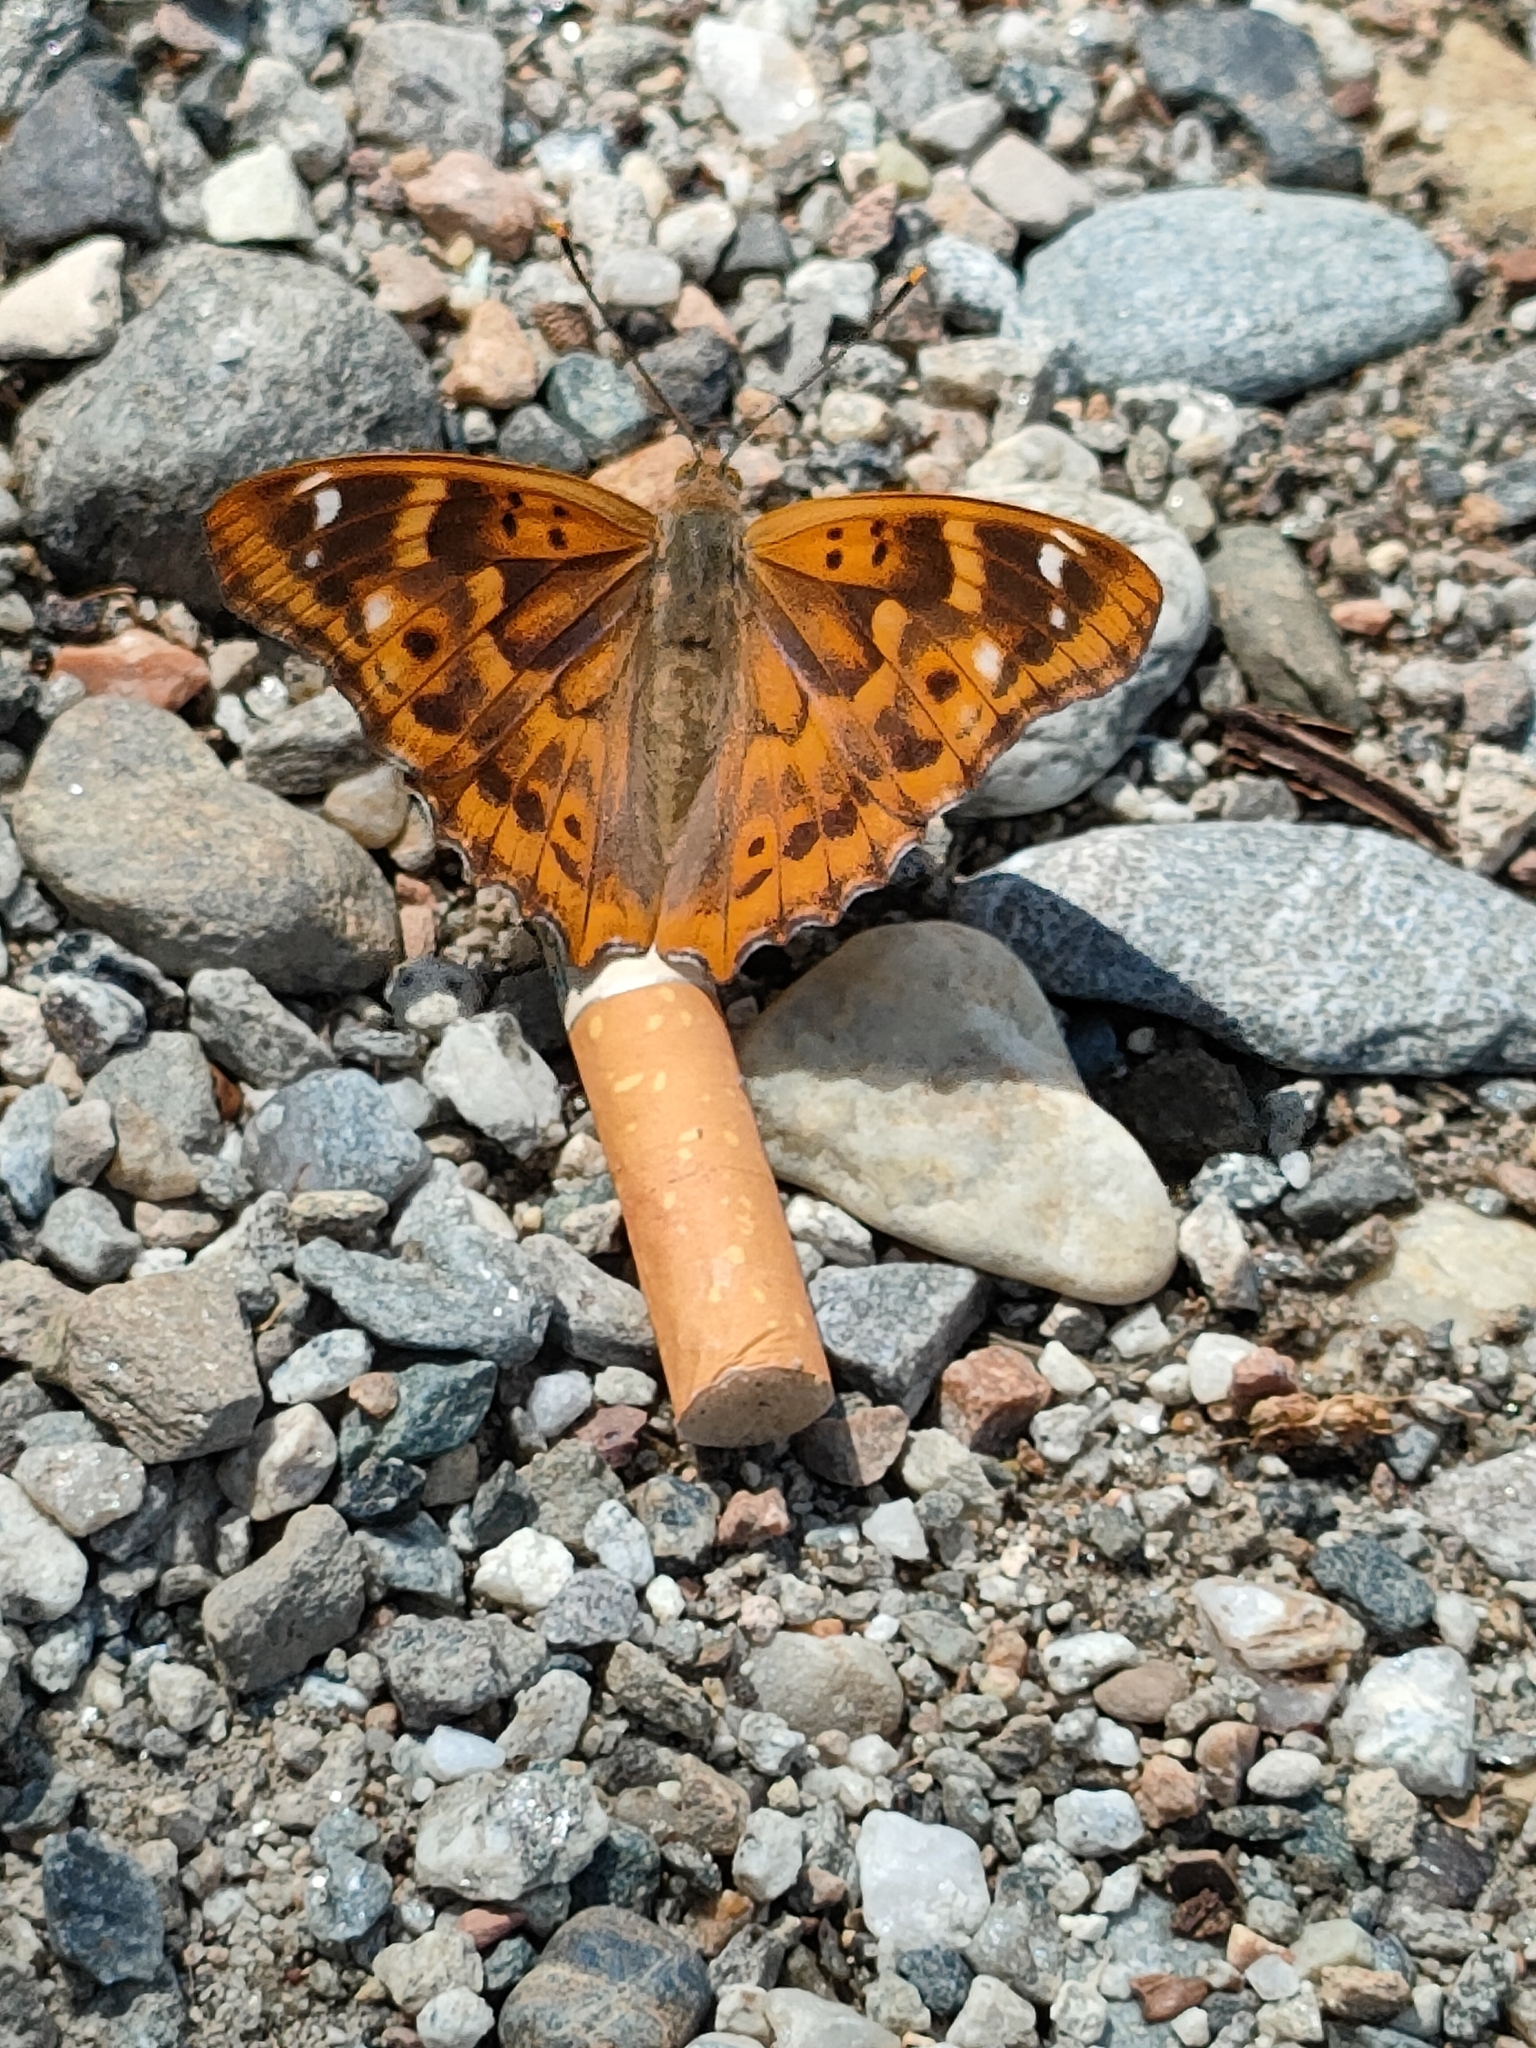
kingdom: Animalia
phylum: Arthropoda
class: Insecta
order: Lepidoptera
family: Nymphalidae
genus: Apatura
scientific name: Apatura ilia
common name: Lesser purple emperor
